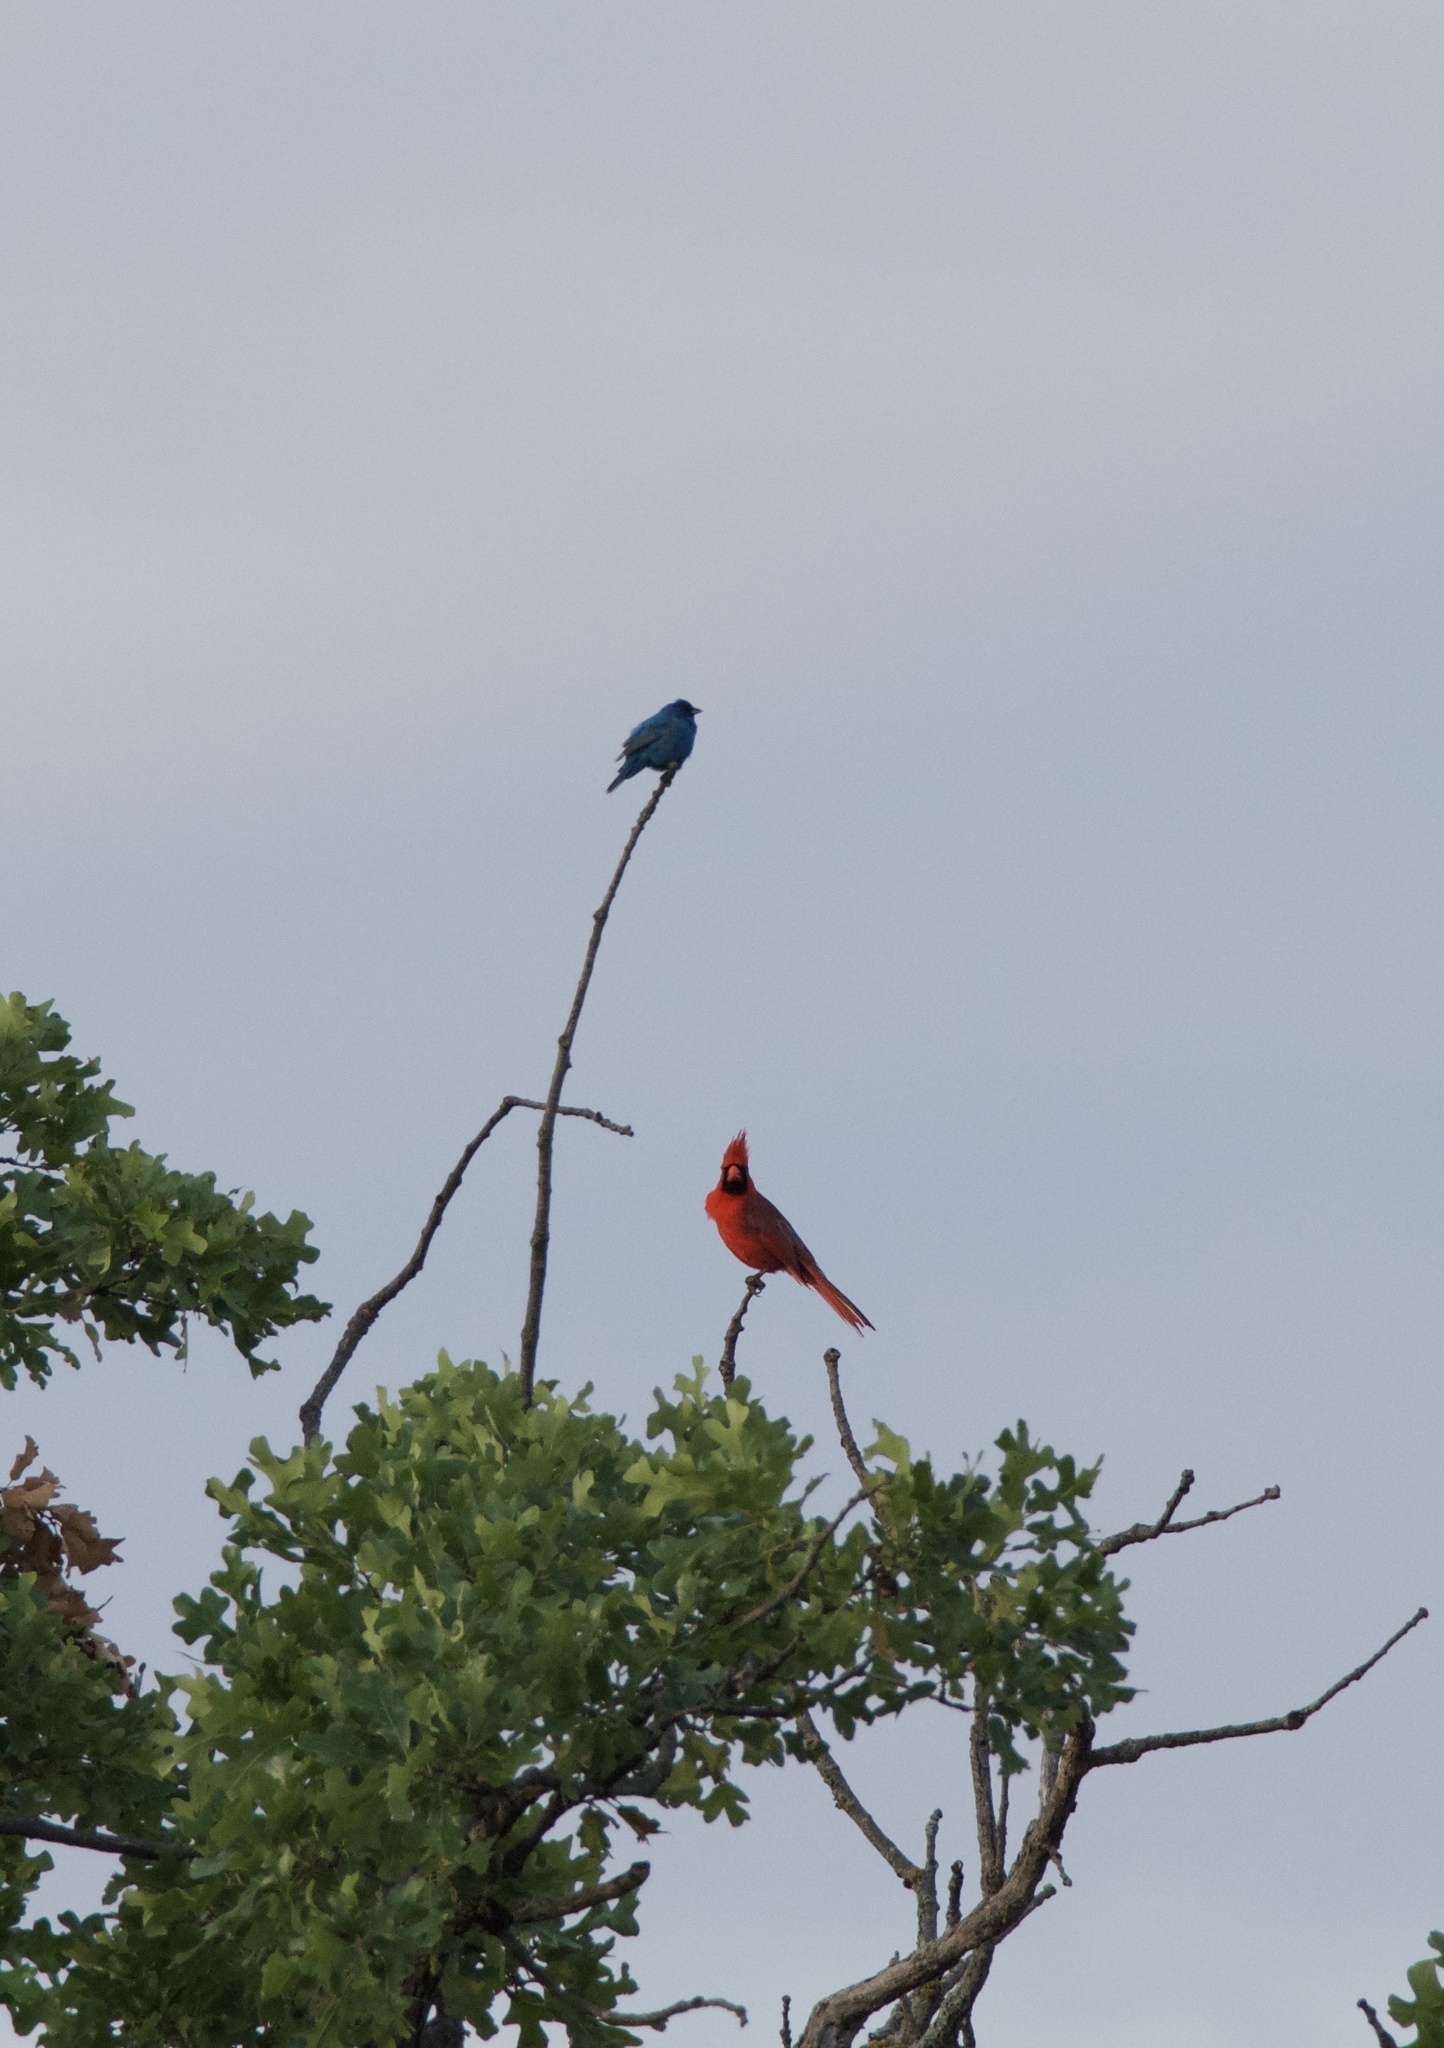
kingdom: Animalia
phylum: Chordata
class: Aves
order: Passeriformes
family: Cardinalidae
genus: Cardinalis
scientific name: Cardinalis cardinalis
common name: Northern cardinal
